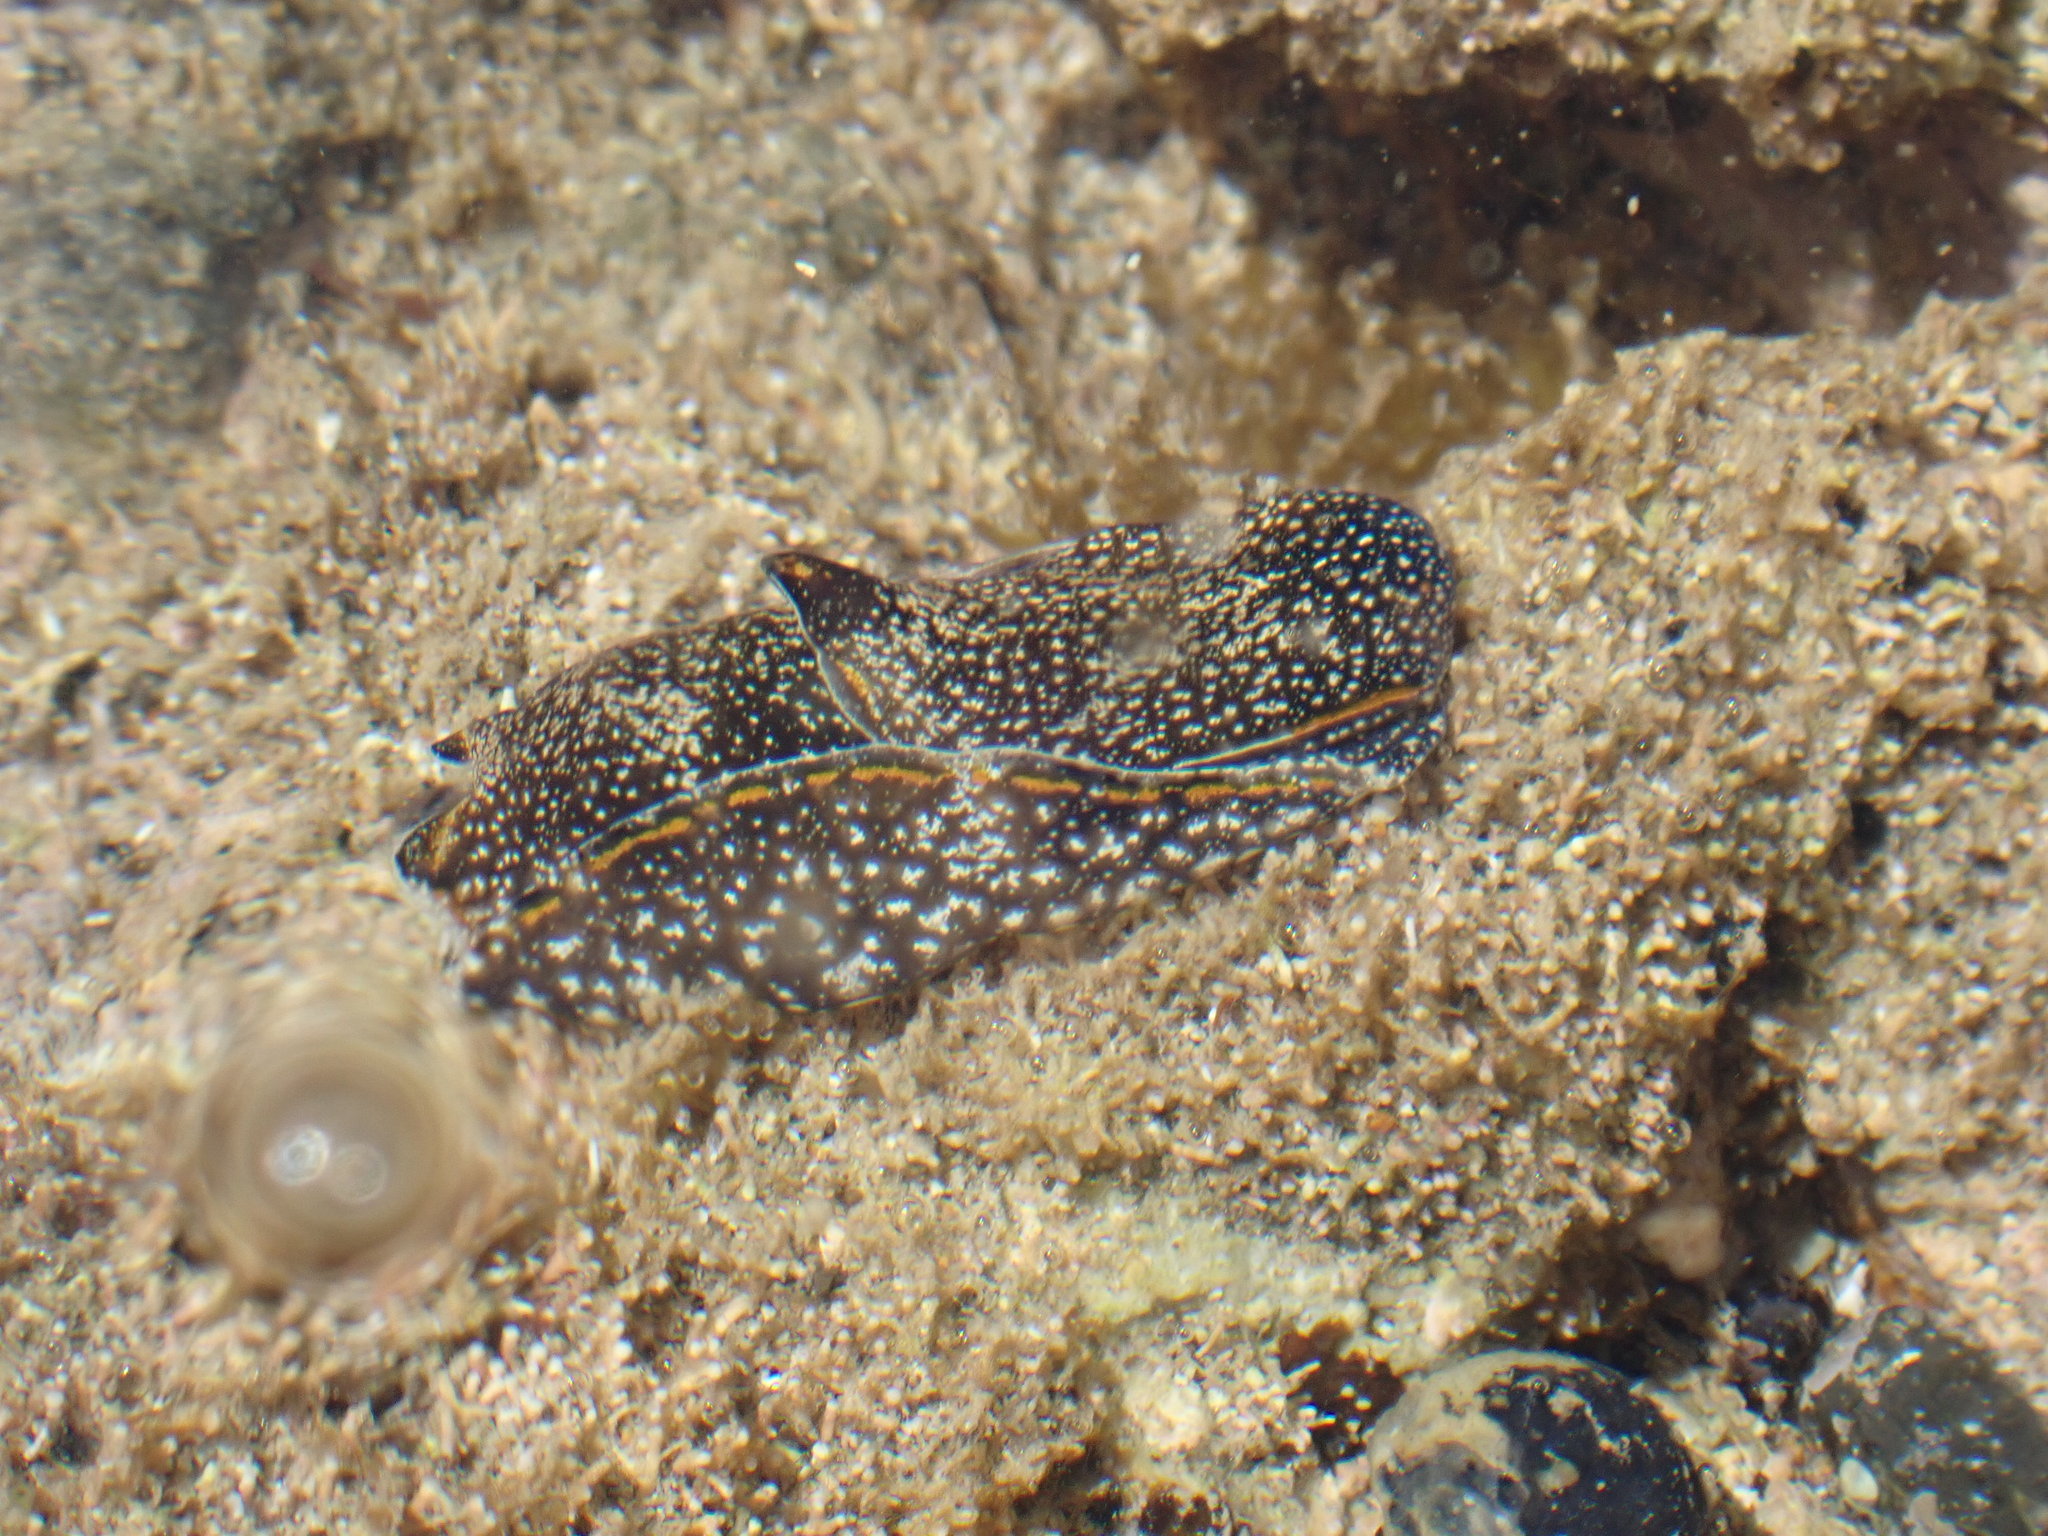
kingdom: Animalia
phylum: Mollusca
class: Gastropoda
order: Cephalaspidea
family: Aglajidae
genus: Philinopsis
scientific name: Philinopsis taronga
